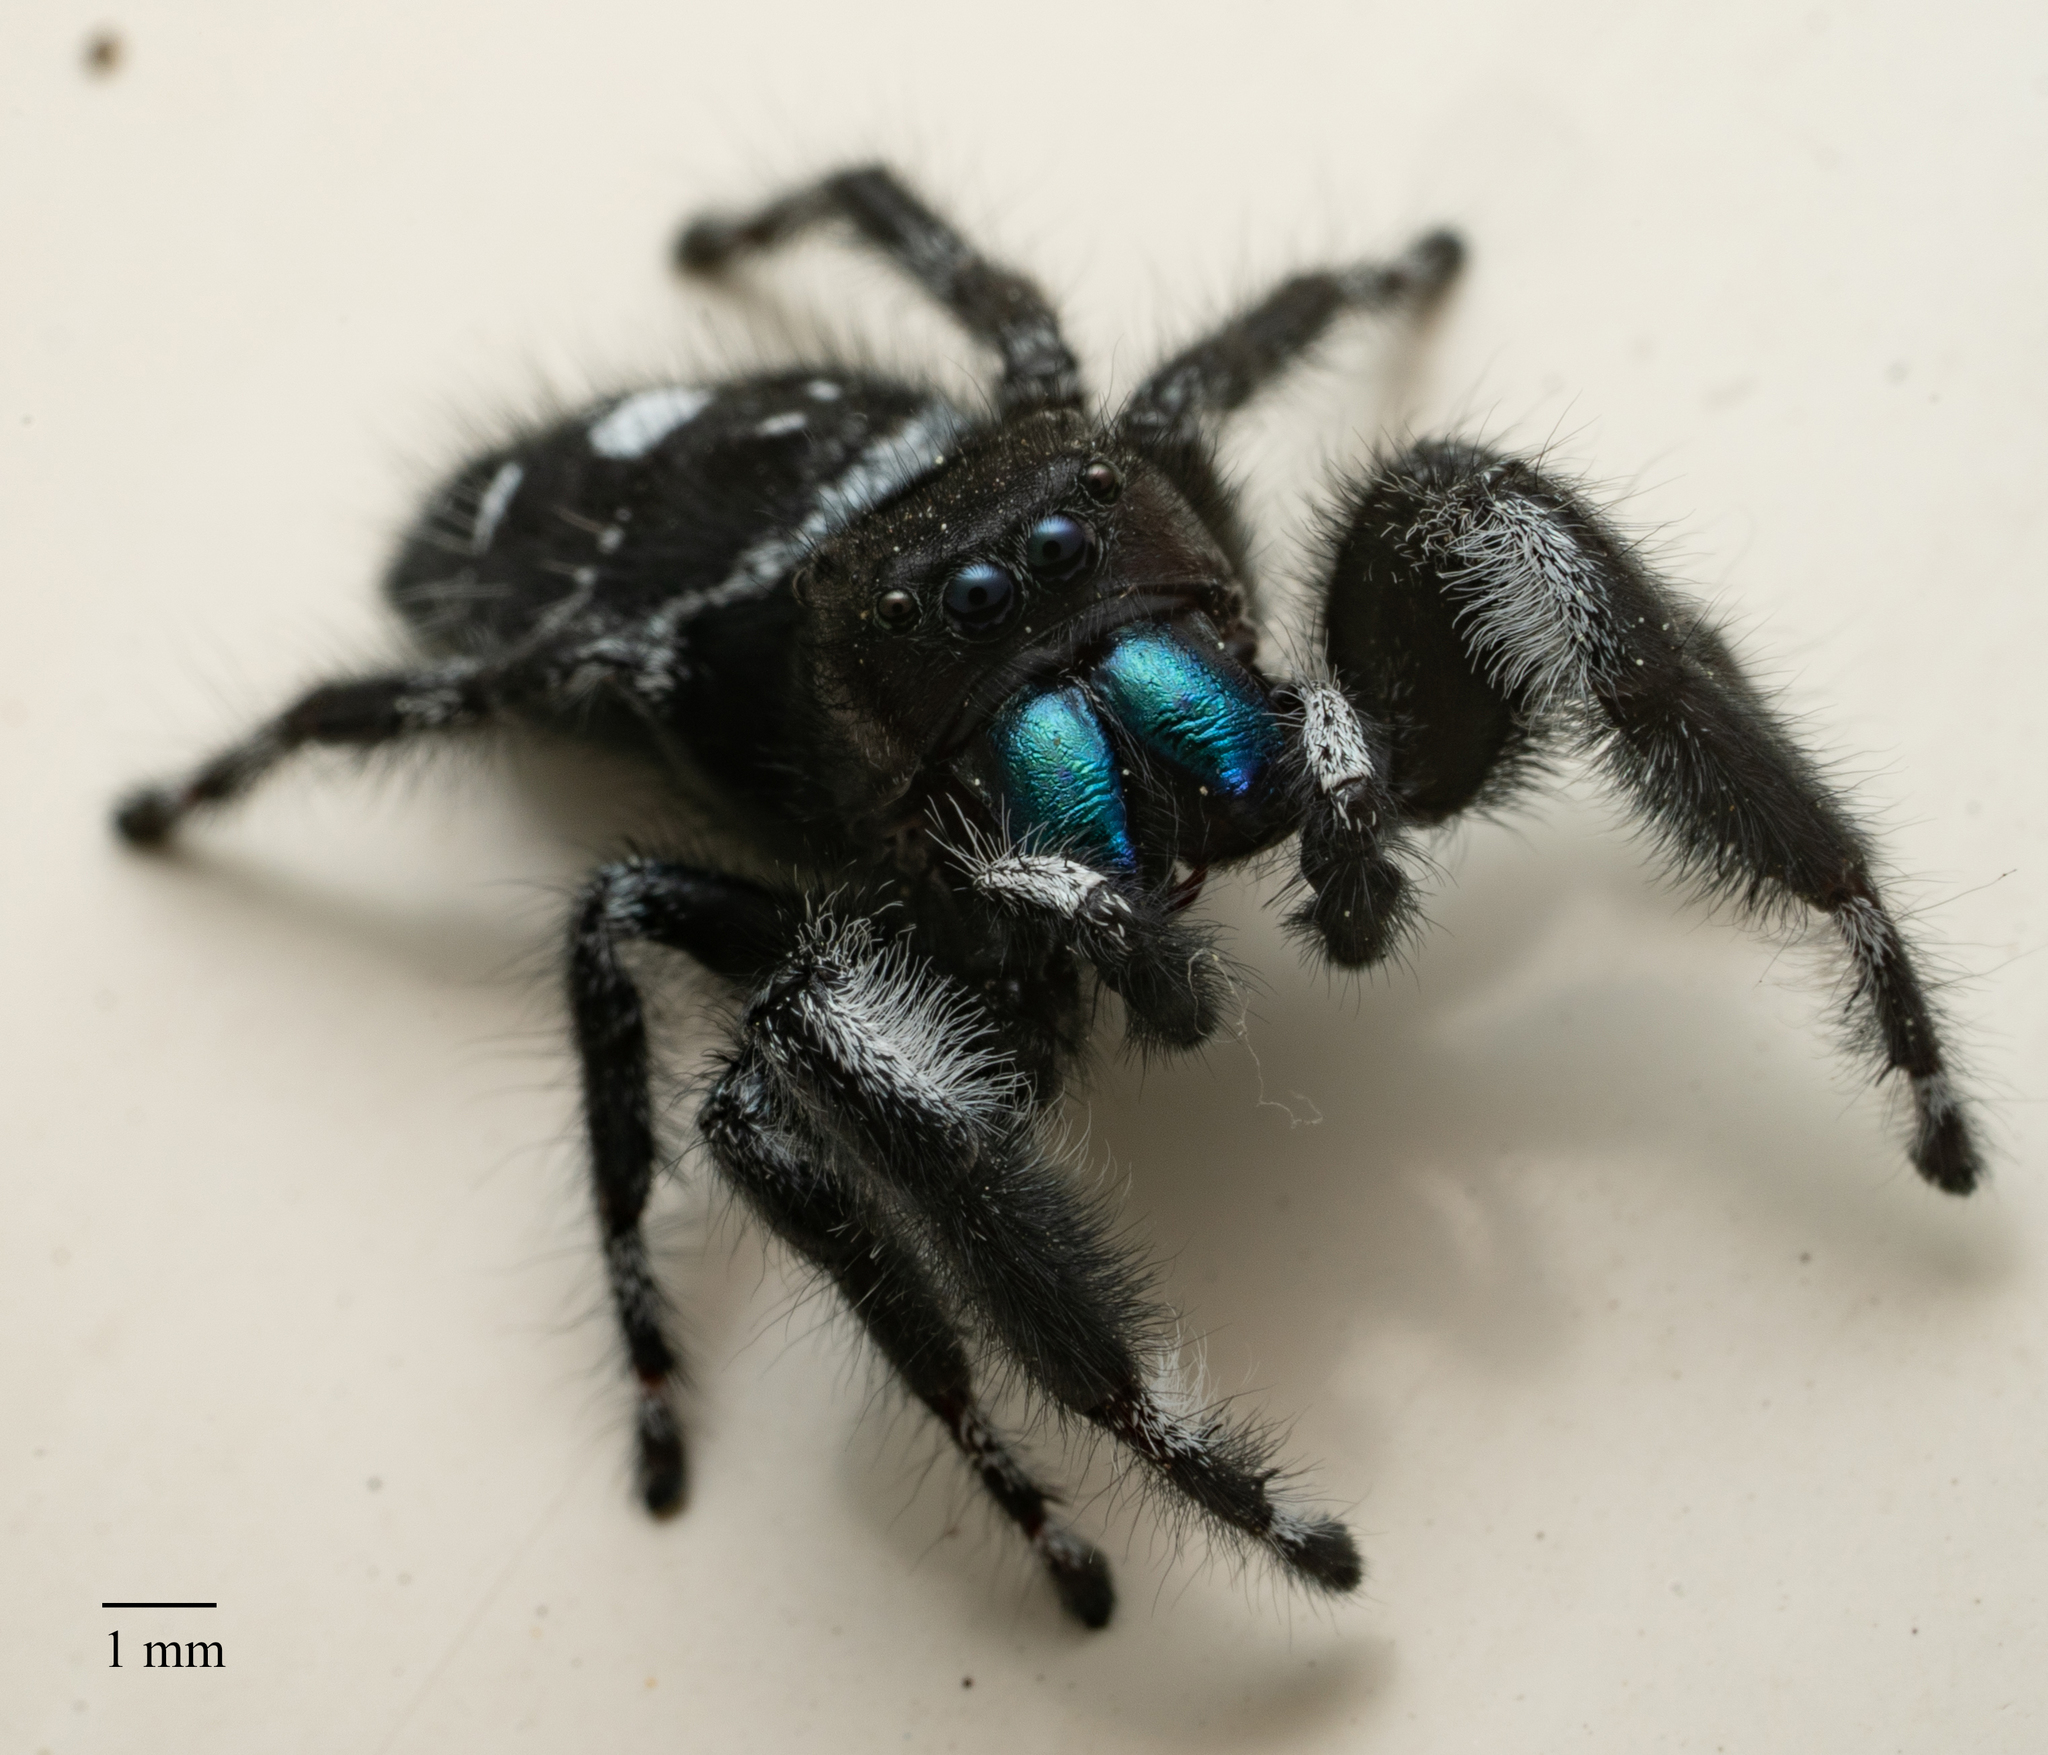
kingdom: Animalia
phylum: Arthropoda
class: Arachnida
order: Araneae
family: Salticidae
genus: Phidippus
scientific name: Phidippus audax
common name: Bold jumper
